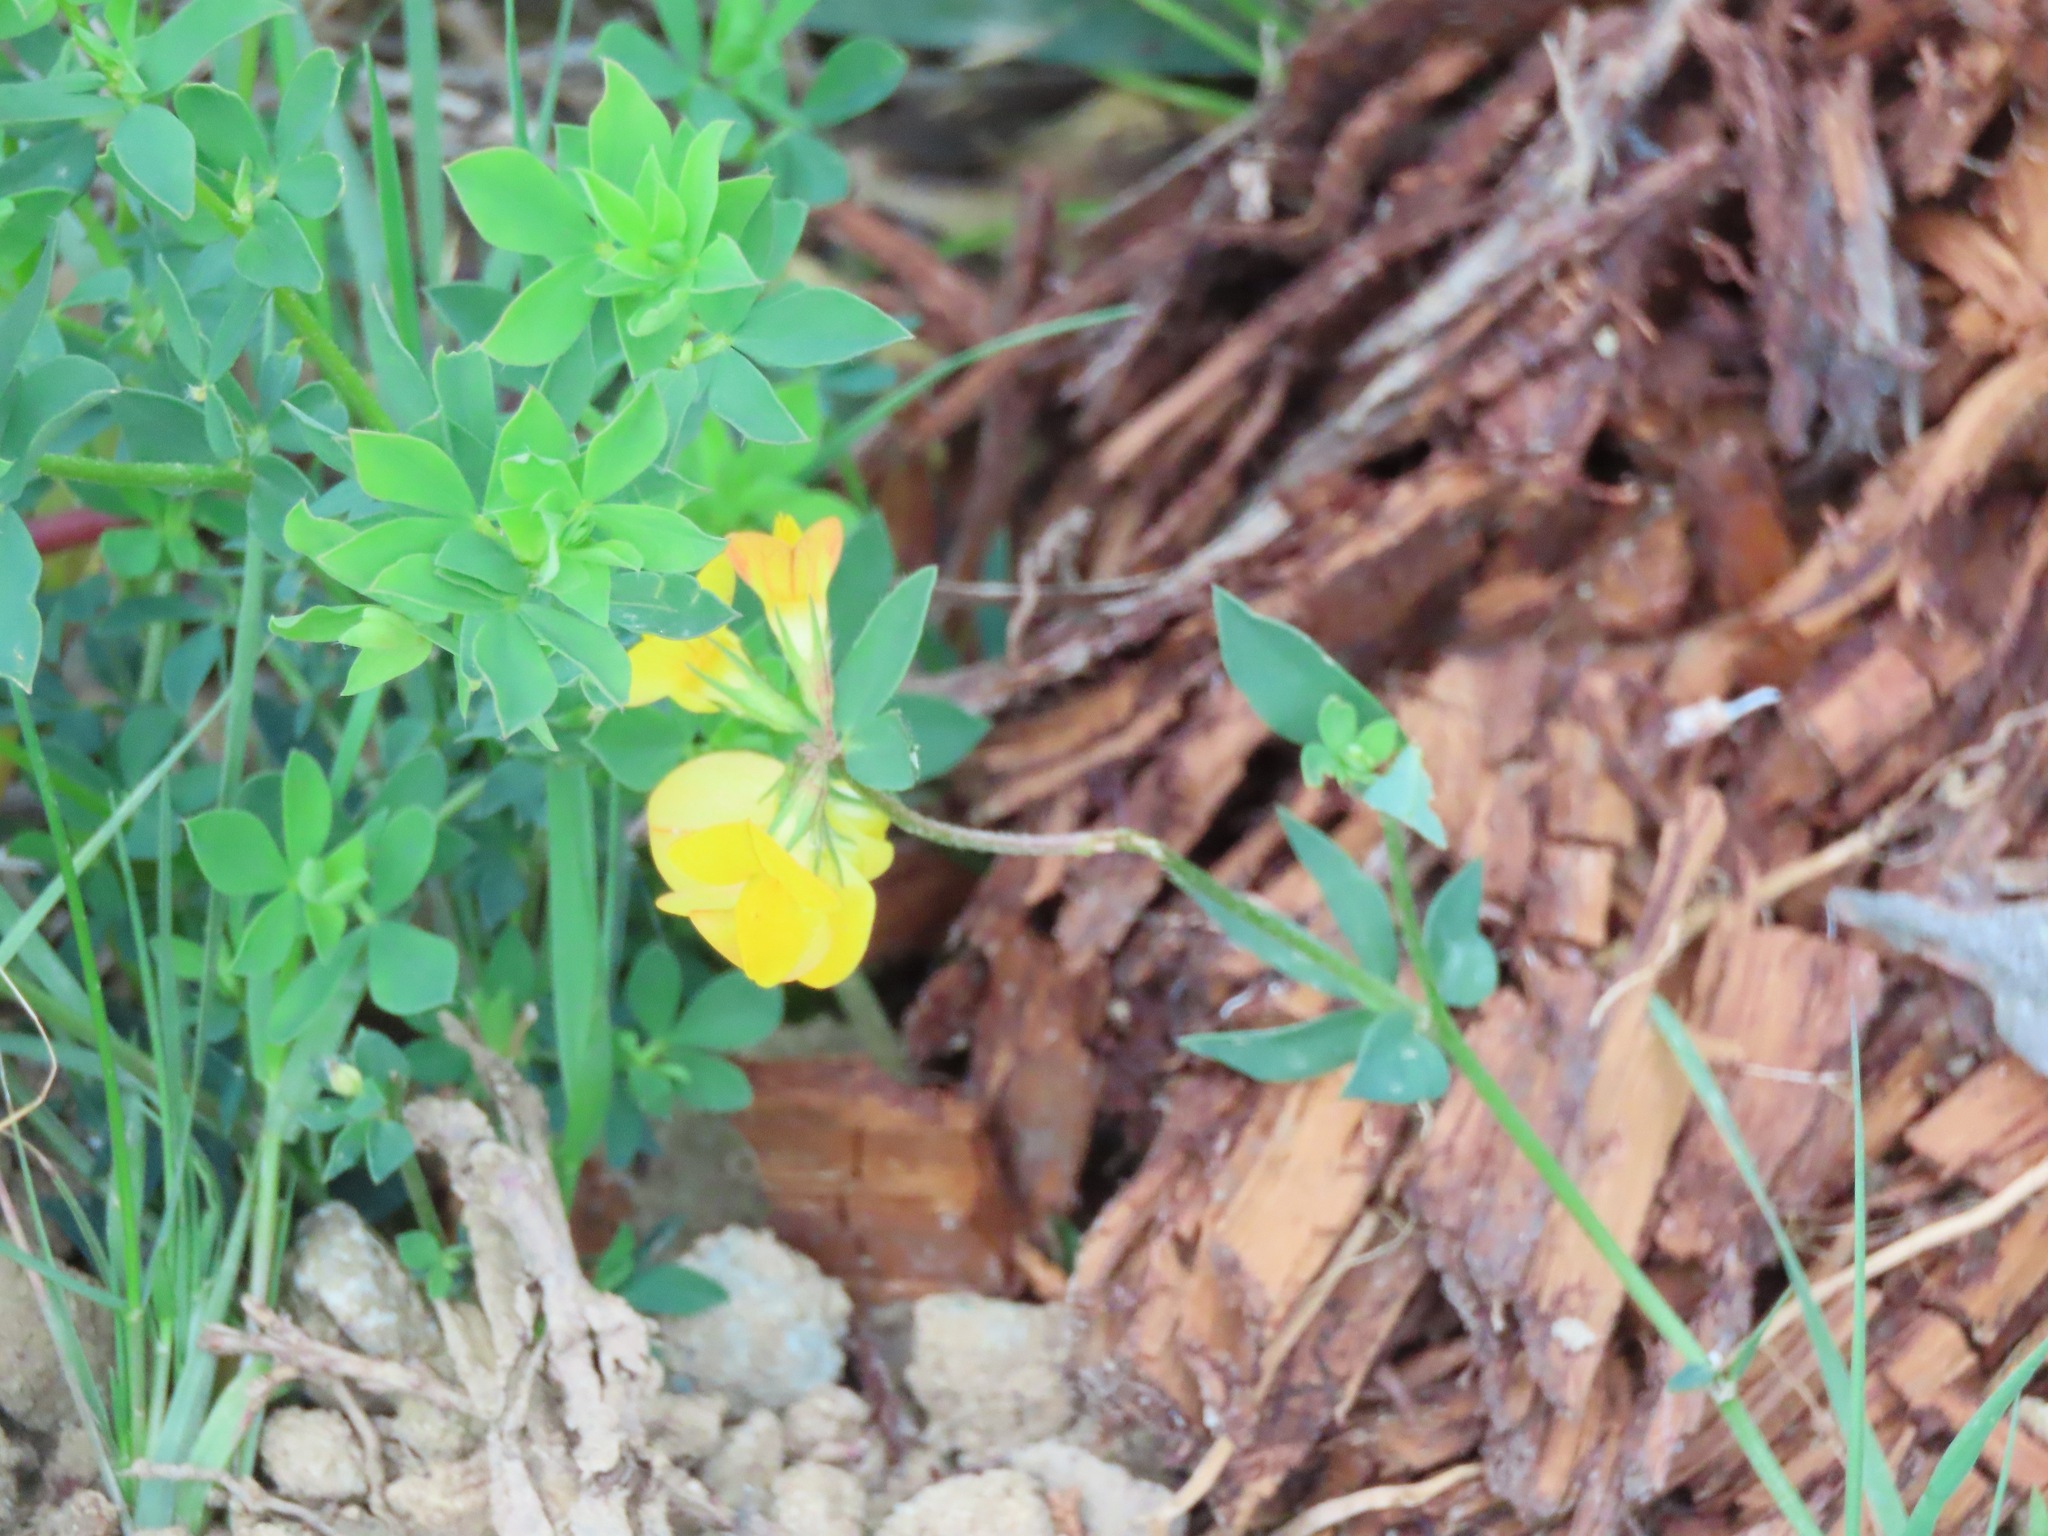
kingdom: Plantae
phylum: Tracheophyta
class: Magnoliopsida
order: Fabales
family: Fabaceae
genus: Lotus
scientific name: Lotus corniculatus
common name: Common bird's-foot-trefoil
